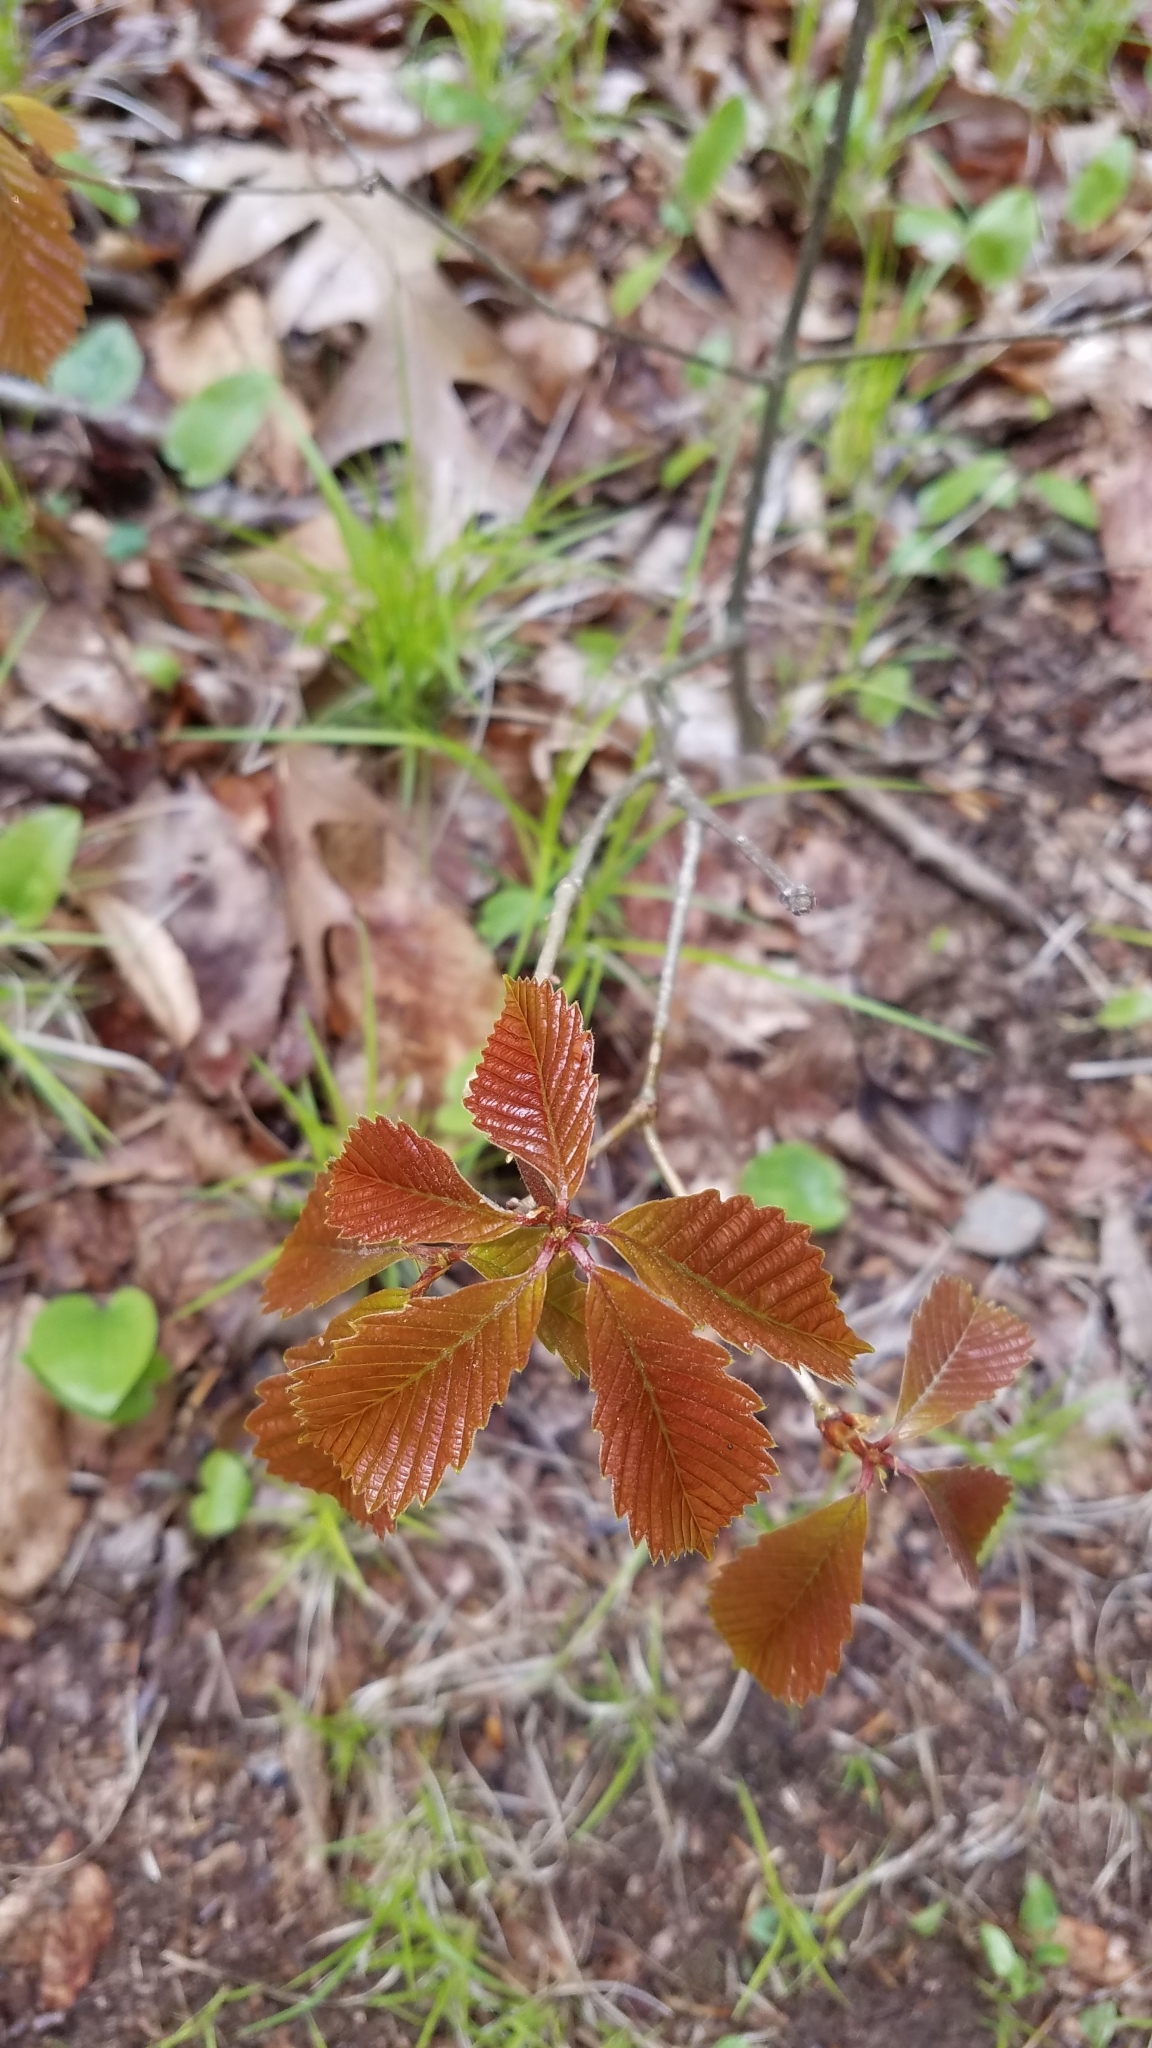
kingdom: Plantae
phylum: Tracheophyta
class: Magnoliopsida
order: Fagales
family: Fagaceae
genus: Quercus
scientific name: Quercus montana
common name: Chestnut oak
